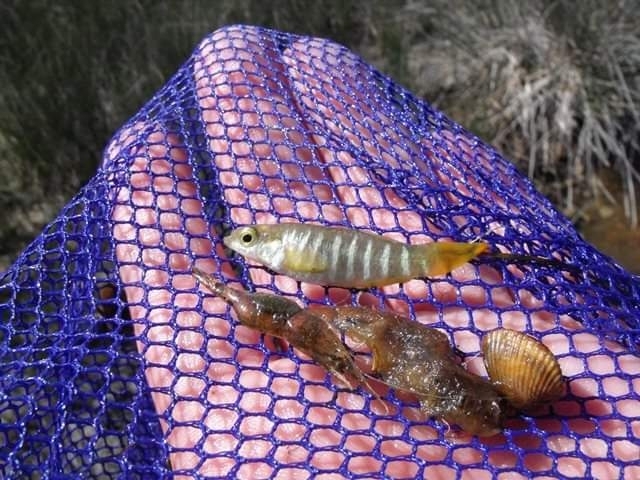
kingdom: Animalia
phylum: Chordata
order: Cyprinodontiformes
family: Cyprinodontidae
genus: Aphanius
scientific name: Aphanius fasciatus
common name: Mediterranean banded killifish
